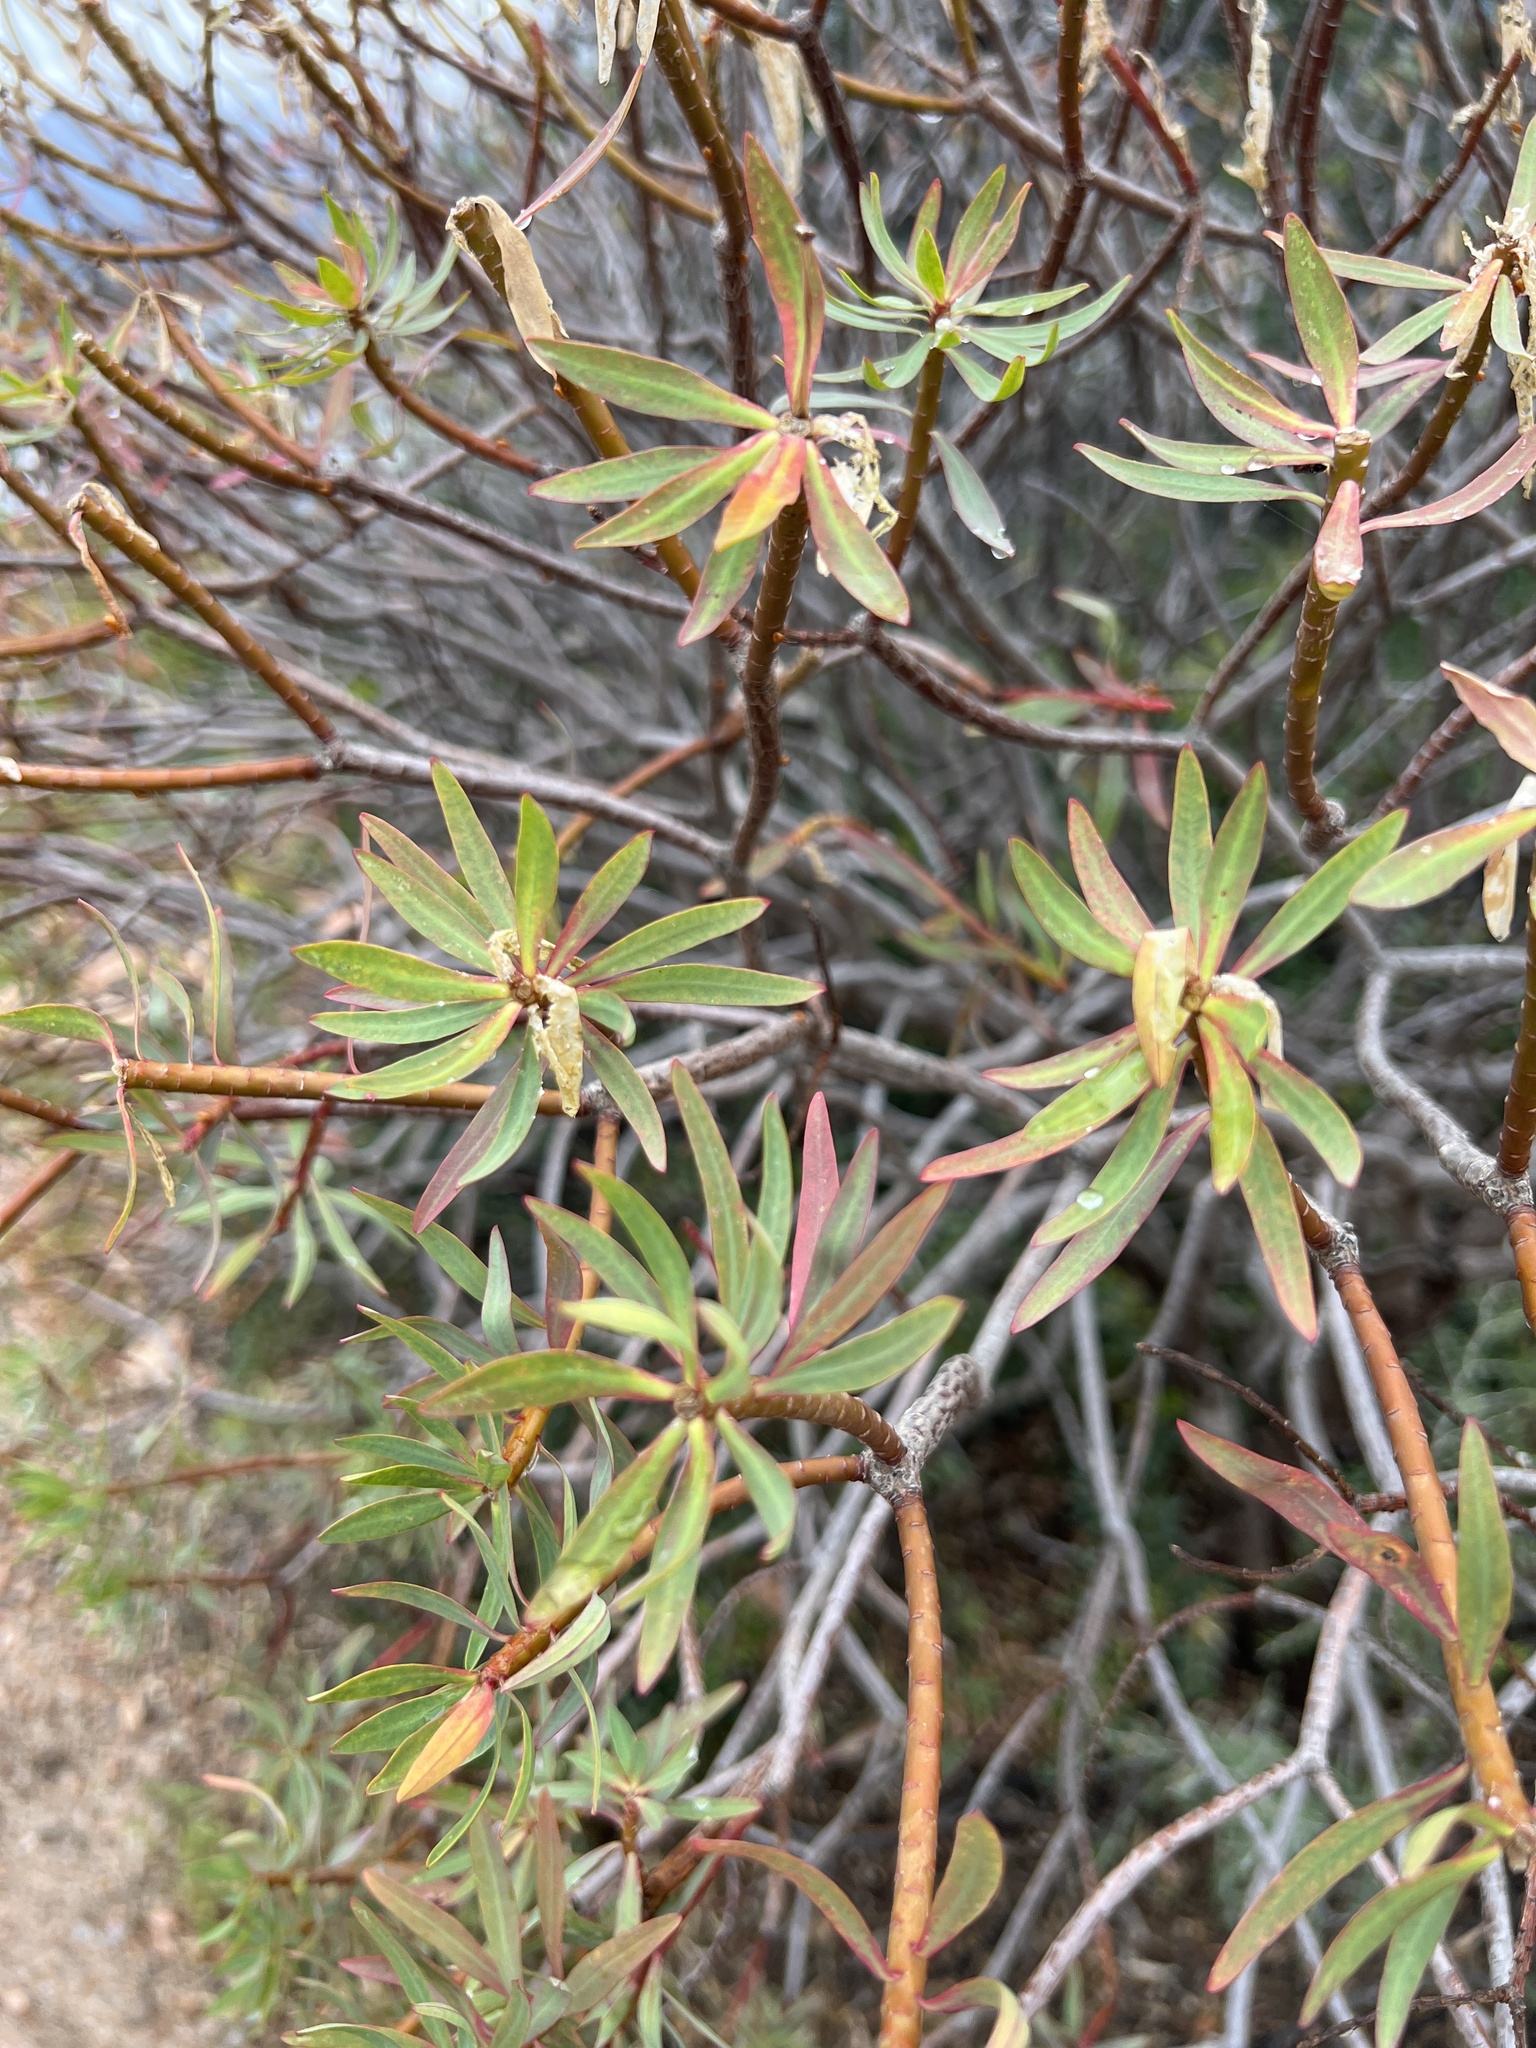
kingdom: Plantae
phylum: Tracheophyta
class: Magnoliopsida
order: Malpighiales
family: Euphorbiaceae
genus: Euphorbia
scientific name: Euphorbia dendroides
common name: Tree spurge
